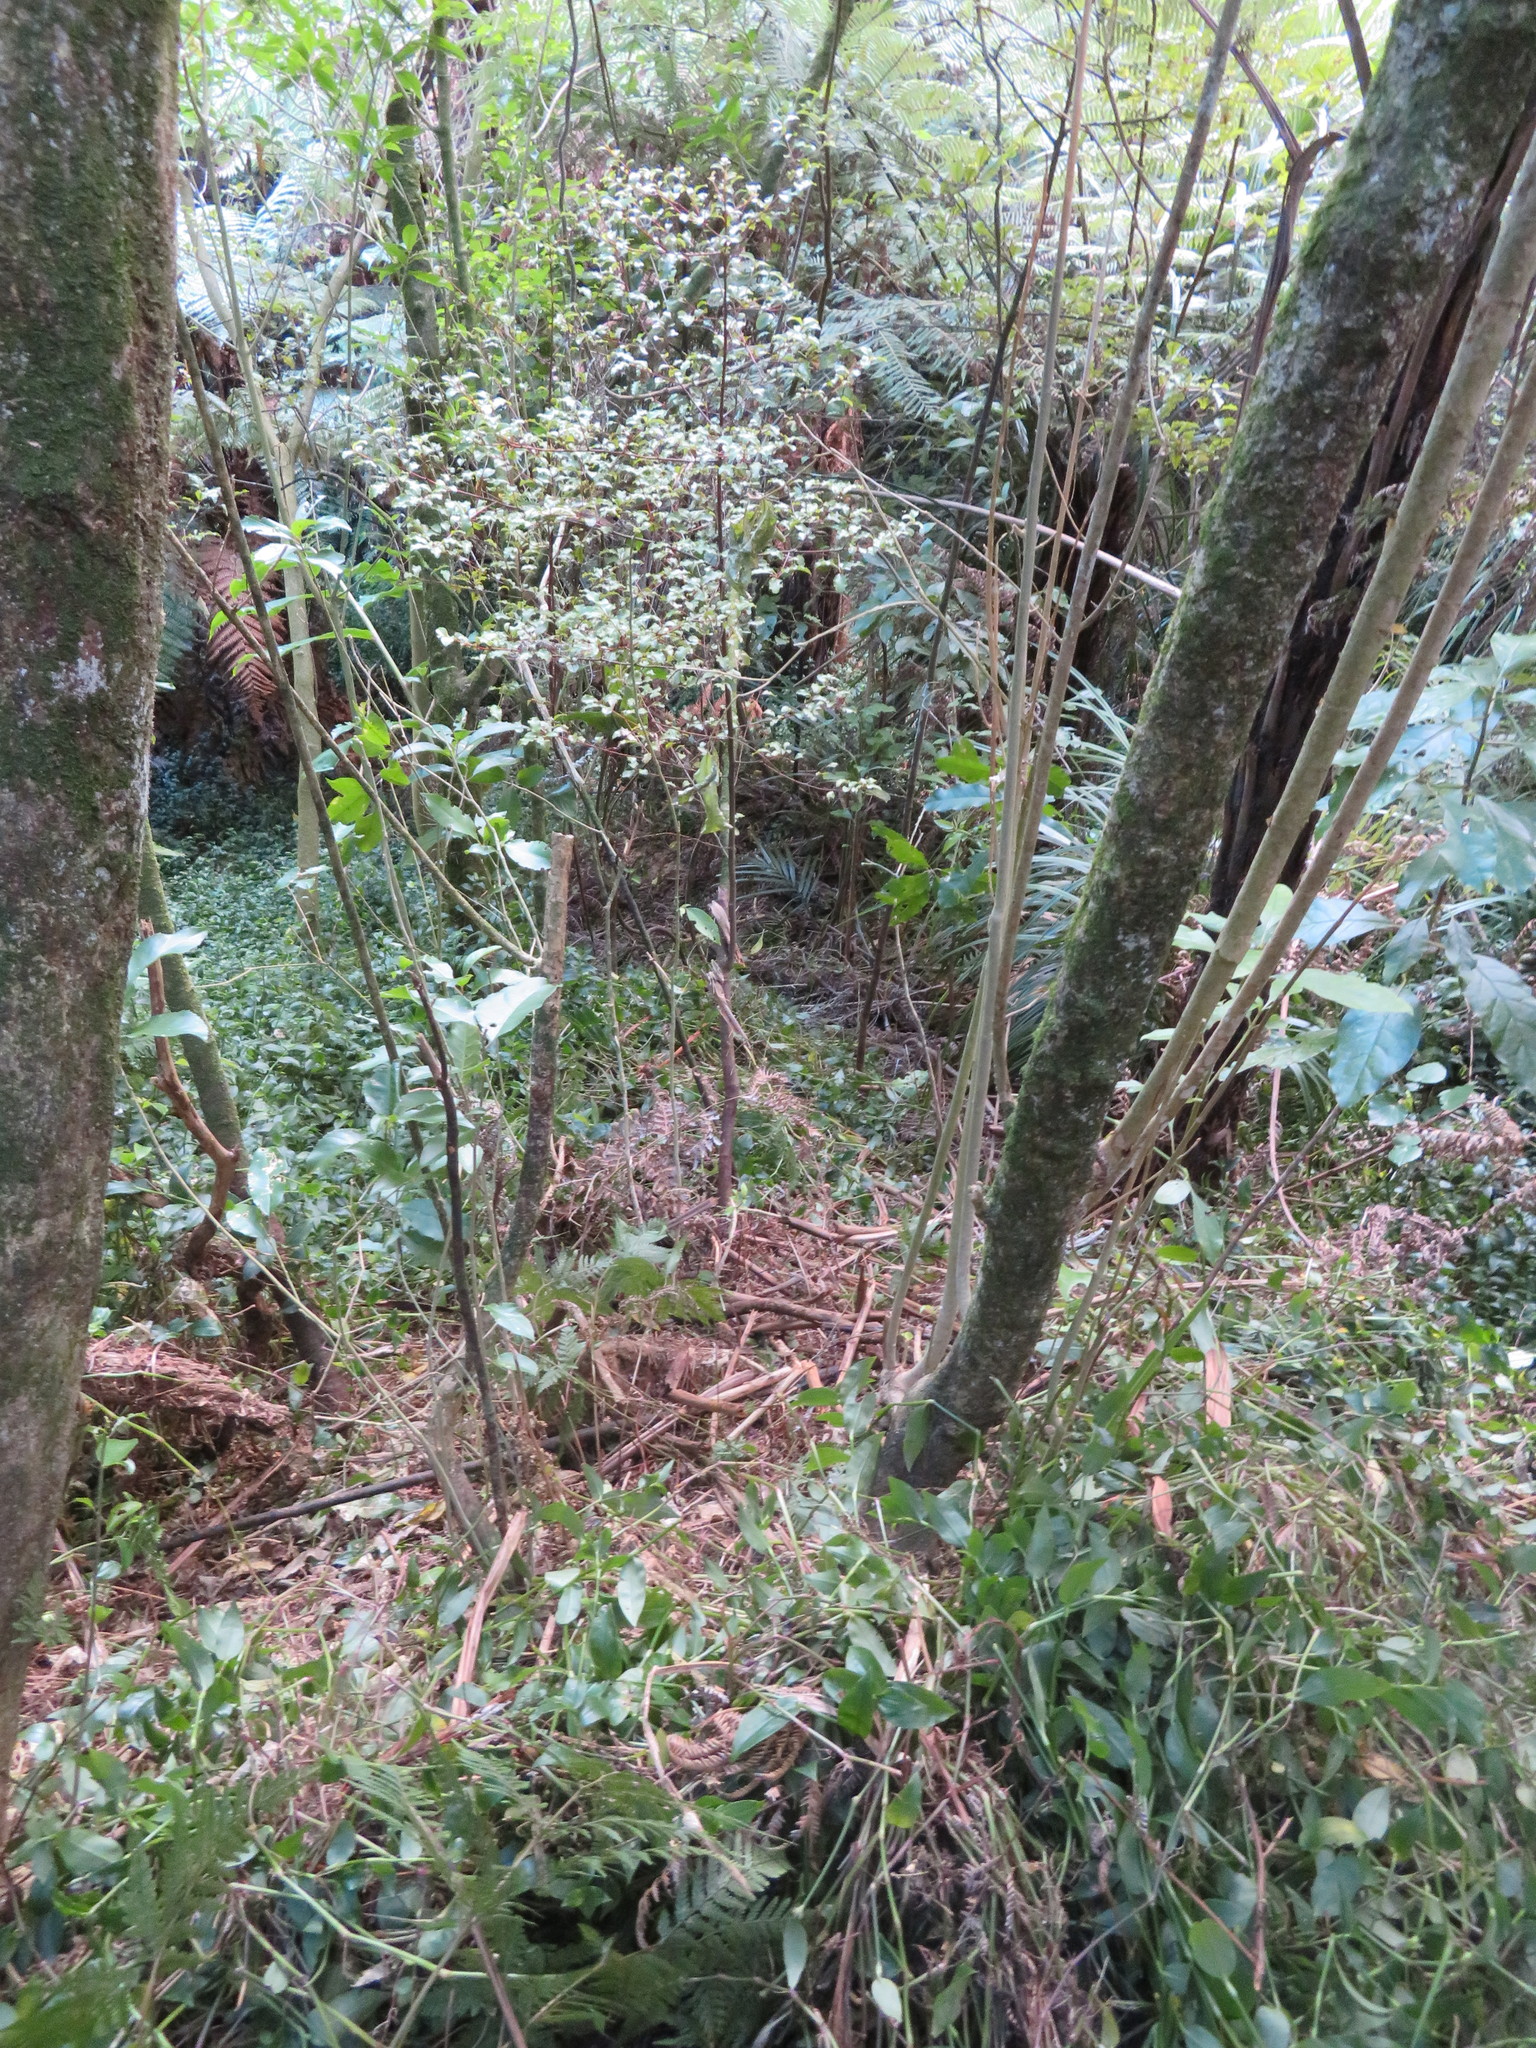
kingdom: Plantae
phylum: Tracheophyta
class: Magnoliopsida
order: Ericales
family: Primulaceae
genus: Myrsine
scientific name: Myrsine australis
